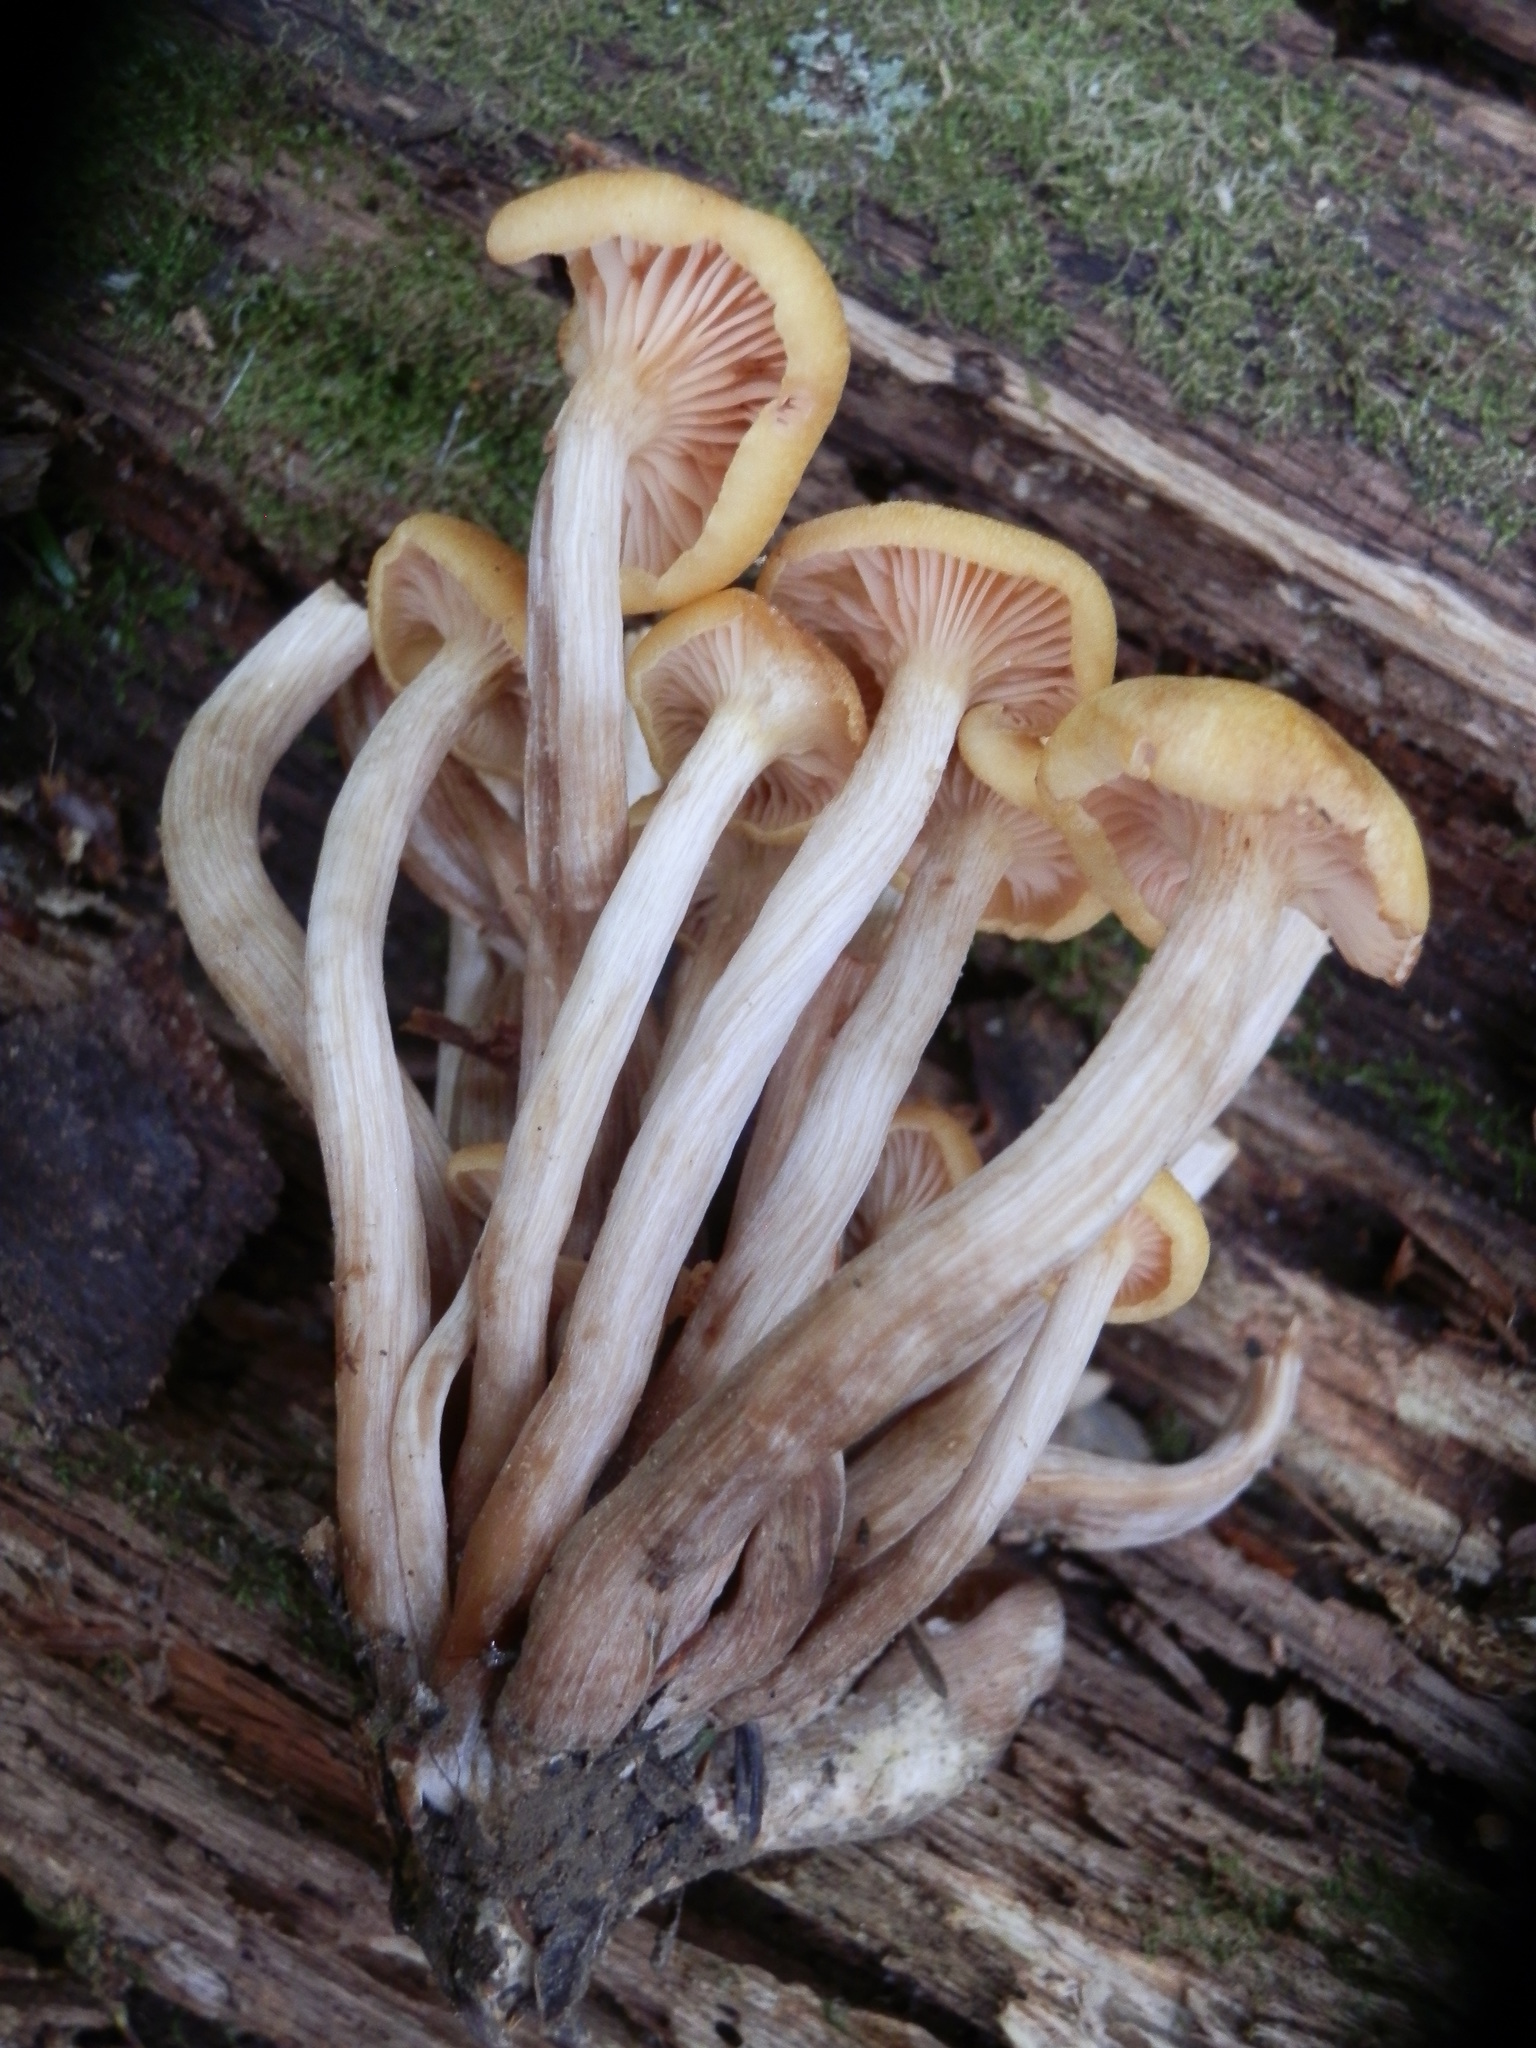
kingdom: Fungi
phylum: Basidiomycota
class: Agaricomycetes
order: Agaricales
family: Physalacriaceae
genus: Desarmillaria
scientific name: Desarmillaria caespitosa
